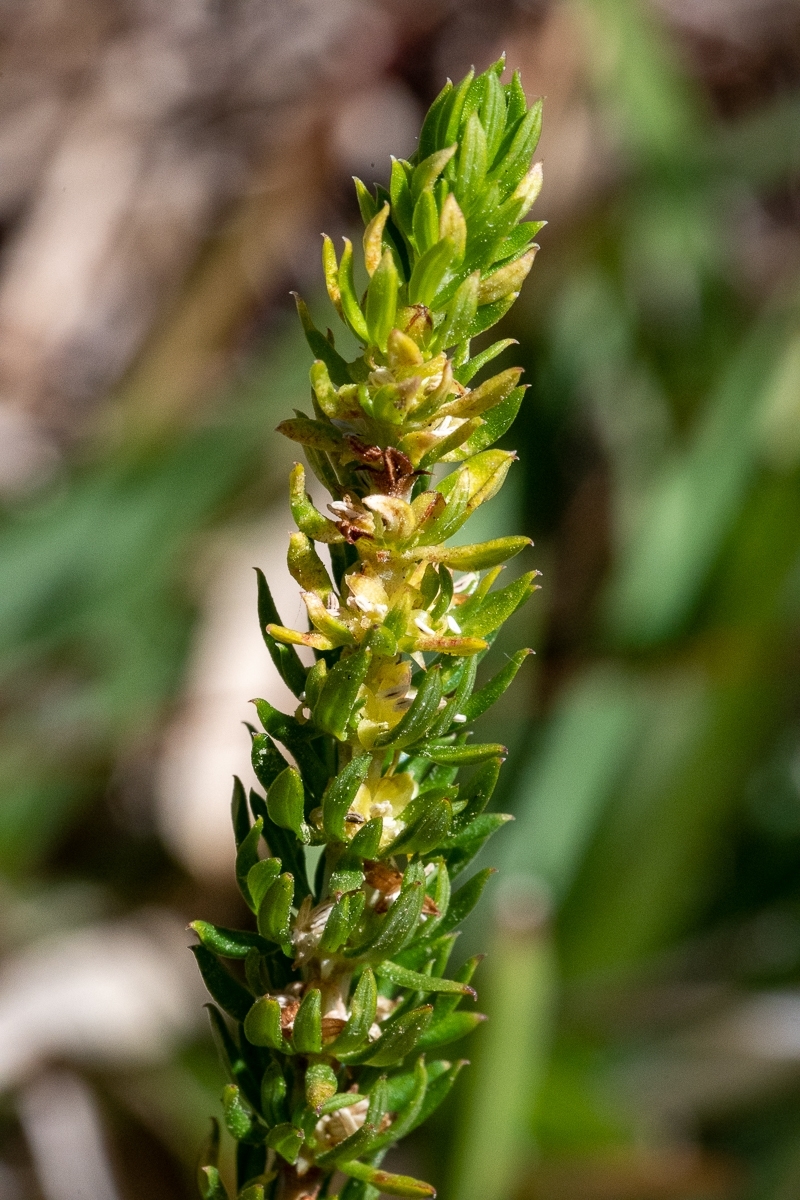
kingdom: Plantae
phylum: Tracheophyta
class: Magnoliopsida
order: Gentianales
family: Rubiaceae
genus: Anthospermum
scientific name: Anthospermum aethiopicum
